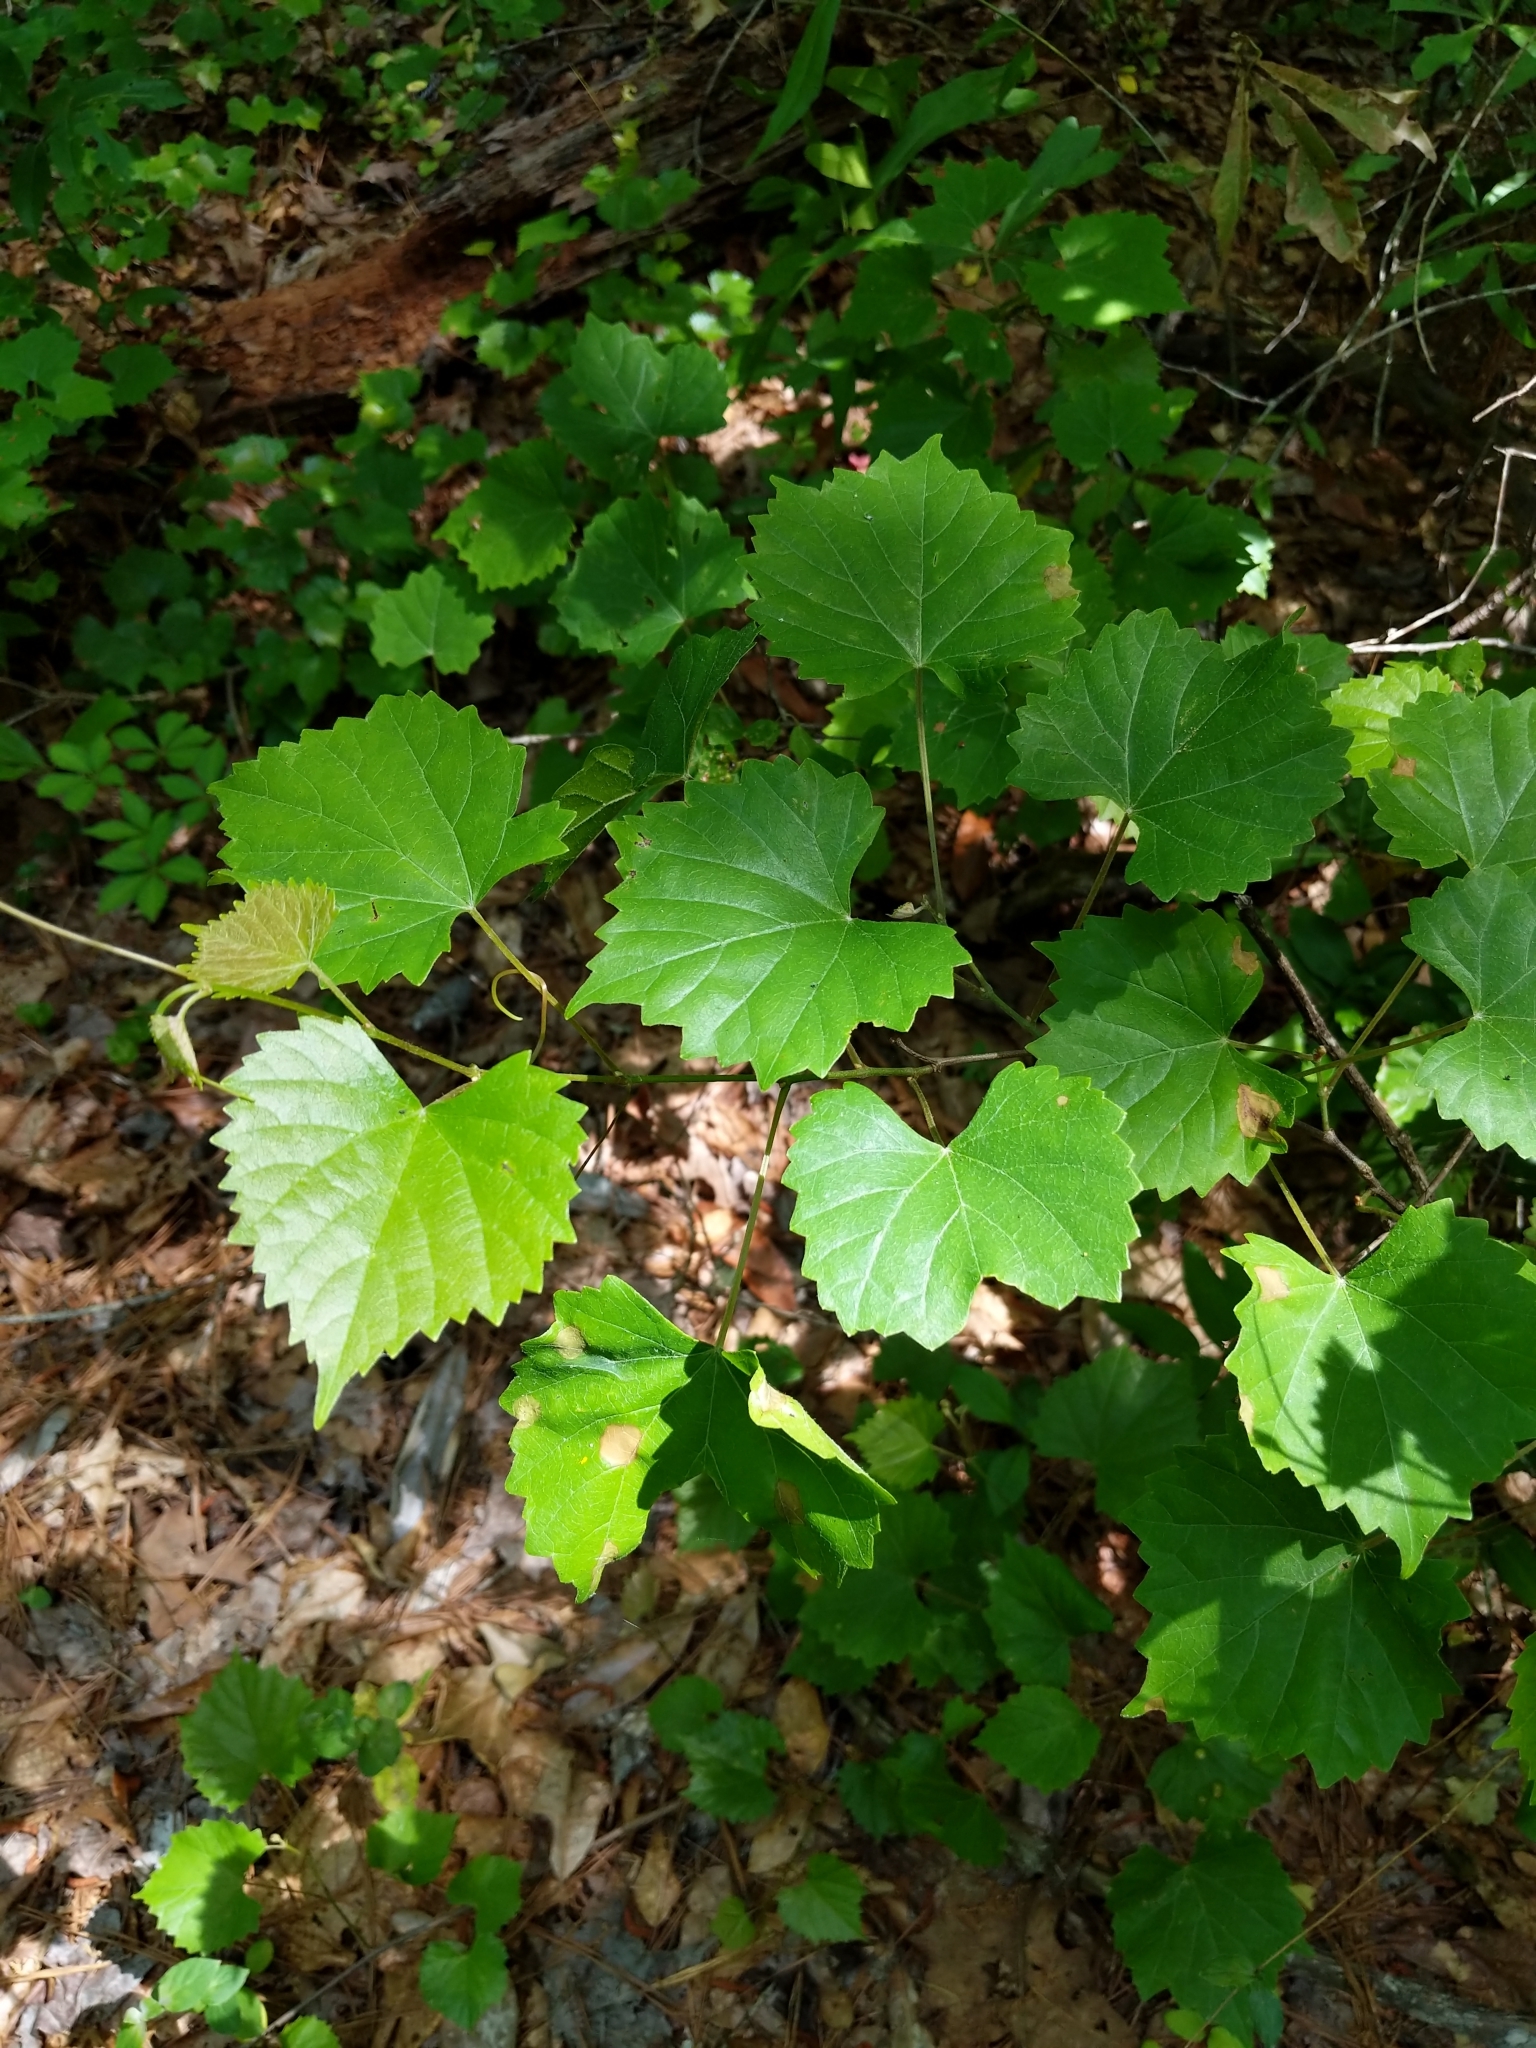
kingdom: Plantae
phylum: Tracheophyta
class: Magnoliopsida
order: Vitales
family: Vitaceae
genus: Vitis
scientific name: Vitis rotundifolia
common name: Muscadine grape
